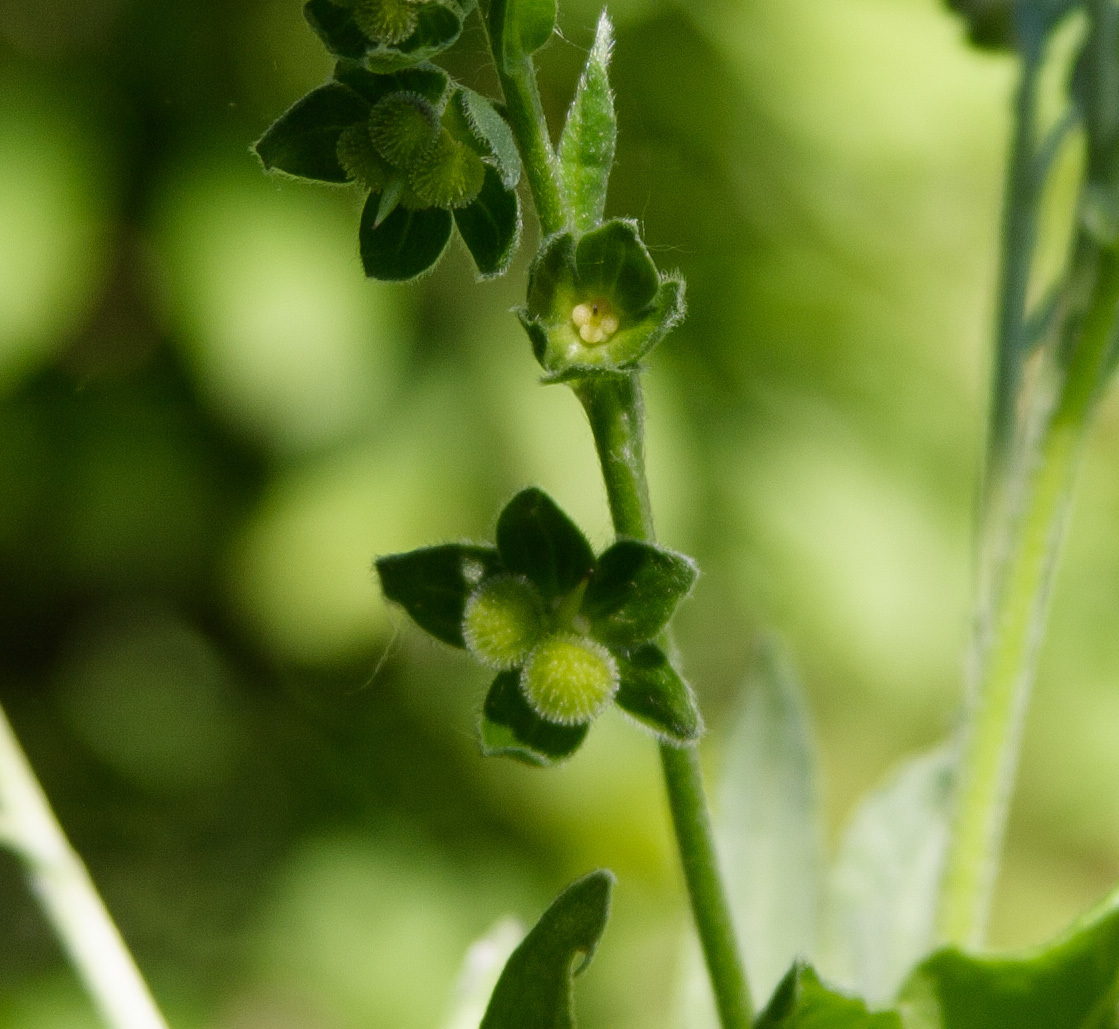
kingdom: Plantae
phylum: Tracheophyta
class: Magnoliopsida
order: Boraginales
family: Boraginaceae
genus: Cynoglossum
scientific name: Cynoglossum officinale
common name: Hound's-tongue
